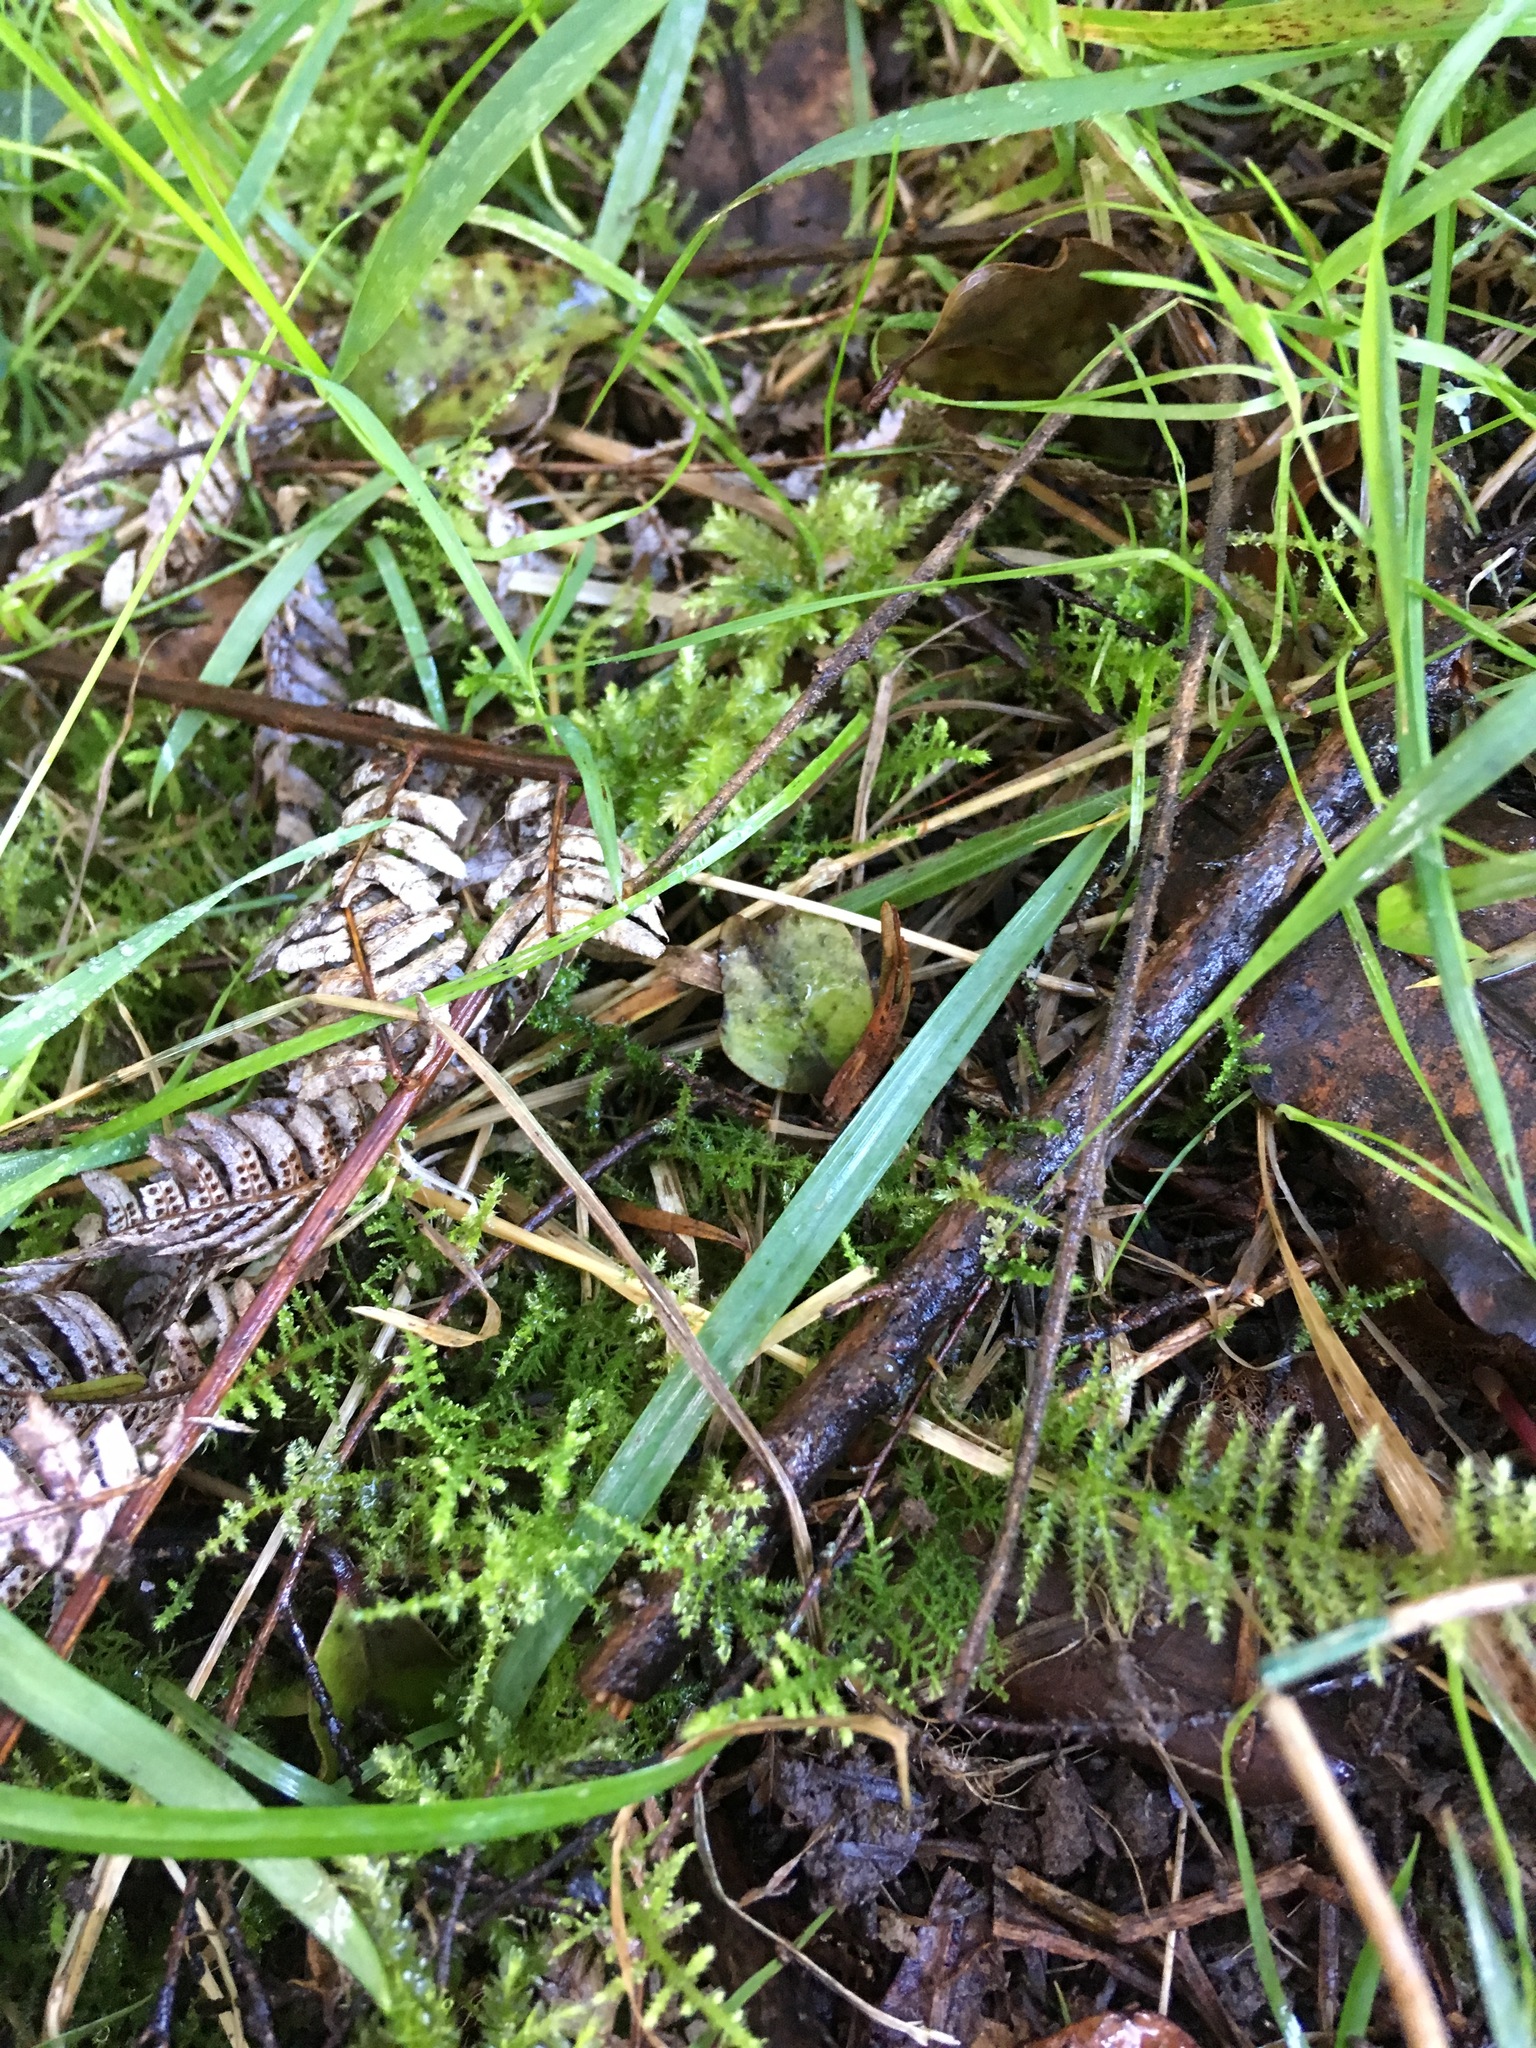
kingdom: Plantae
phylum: Bryophyta
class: Bryopsida
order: Hypnales
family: Brachytheciaceae
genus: Kindbergia
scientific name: Kindbergia praelonga
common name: Slender beaked moss
